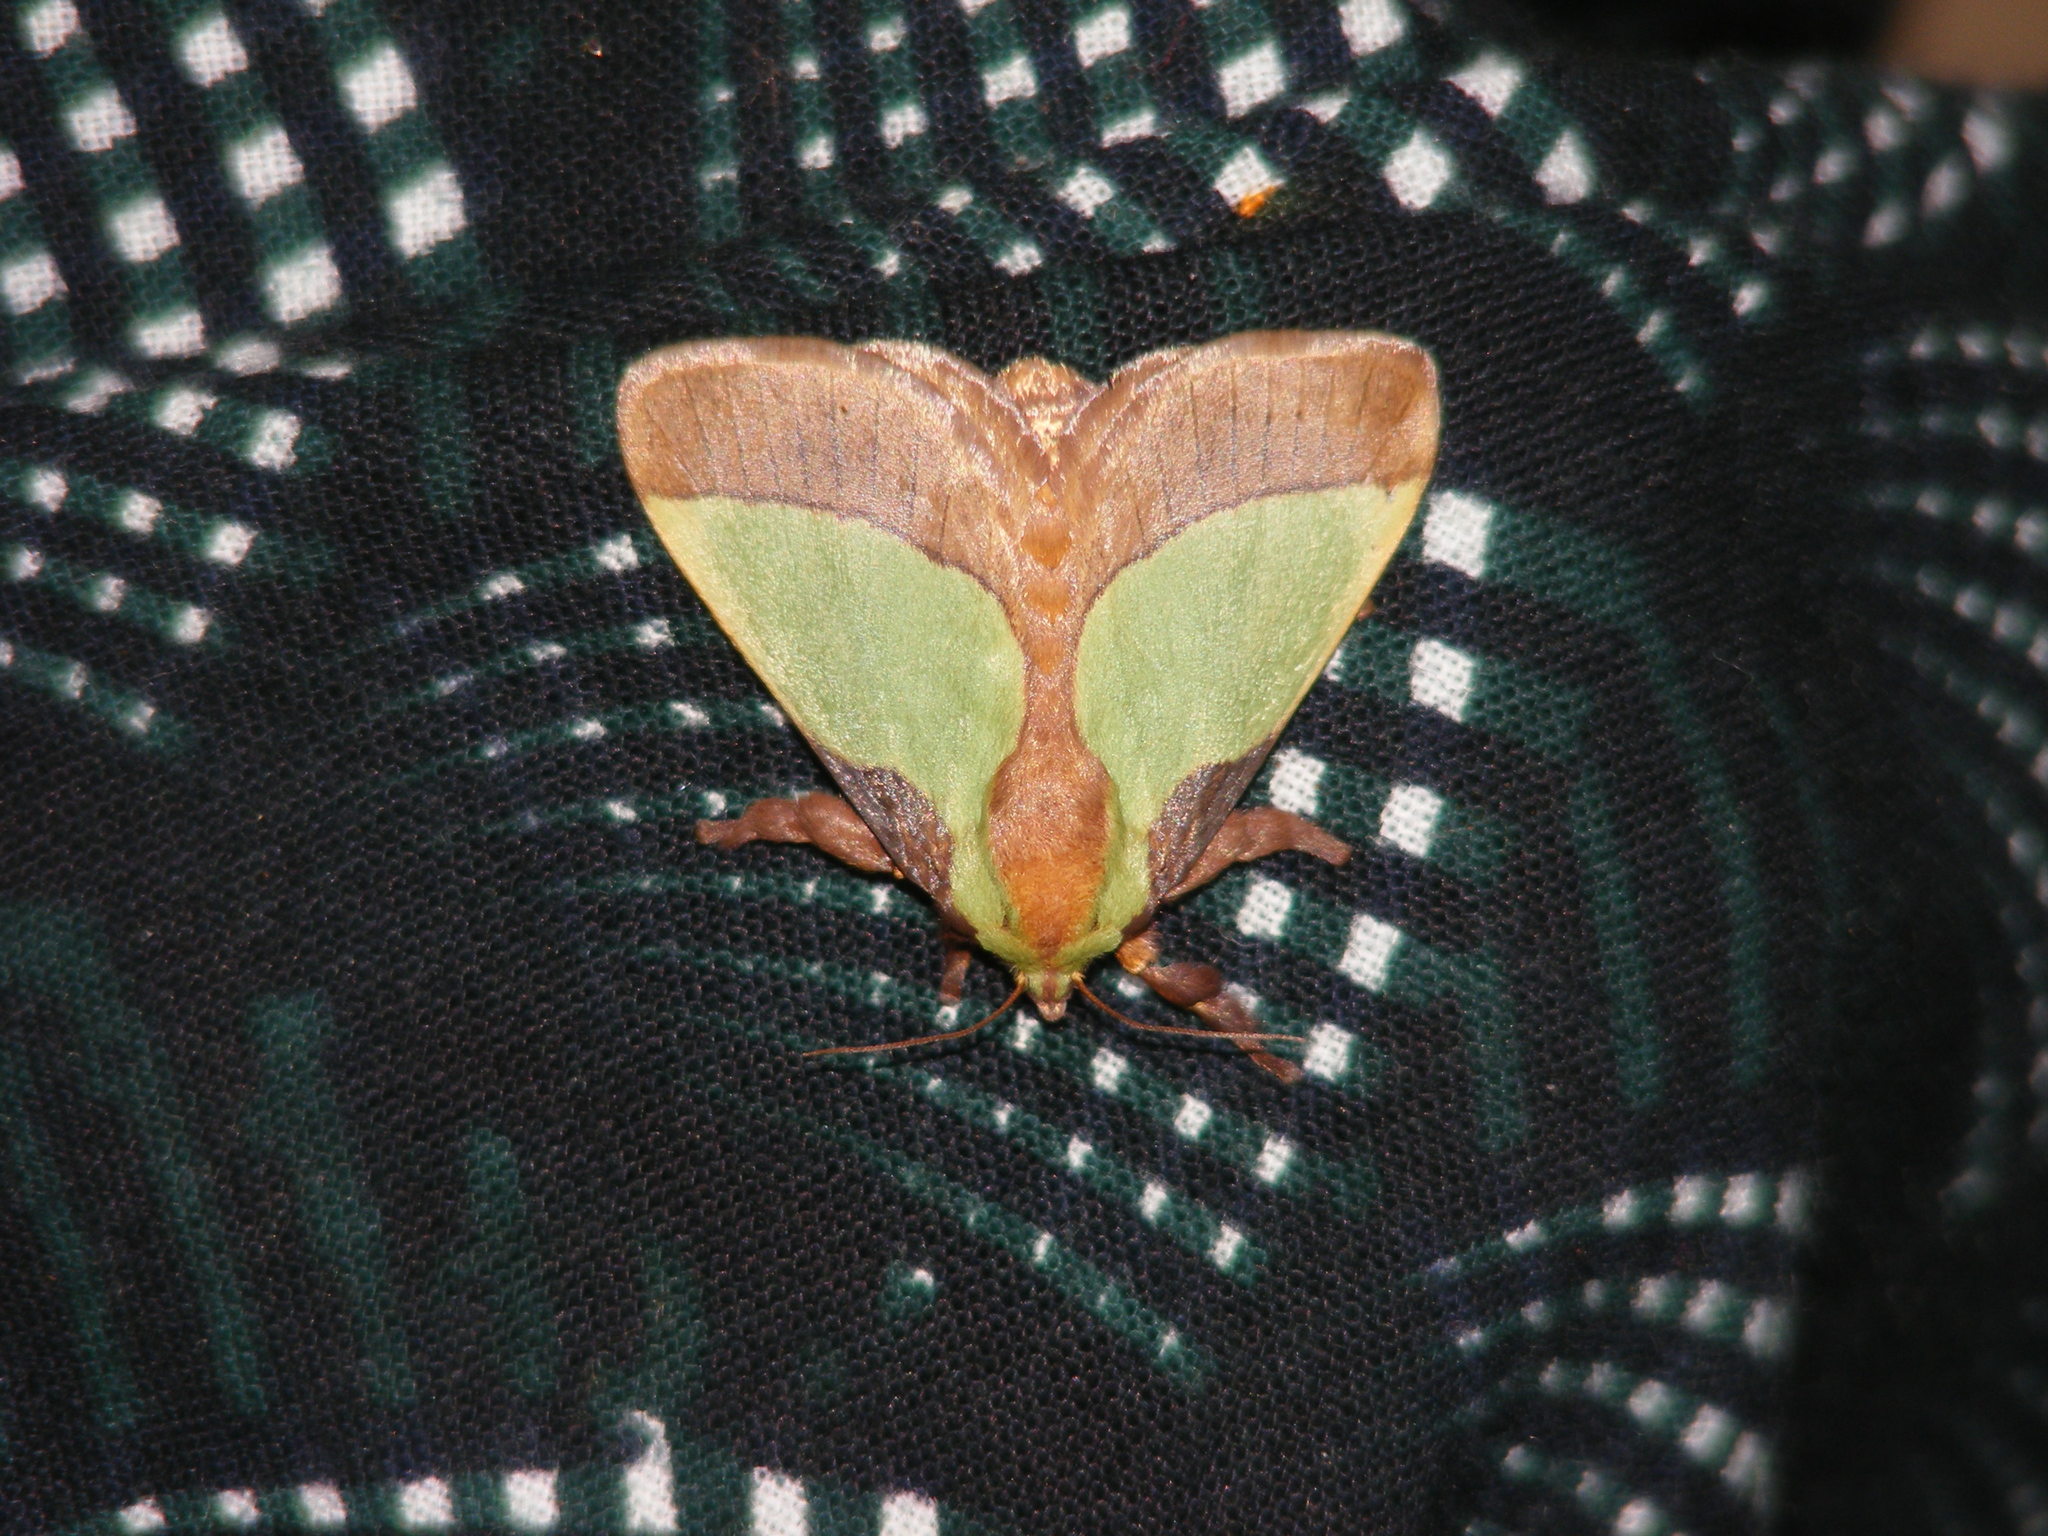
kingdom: Animalia
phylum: Arthropoda
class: Insecta
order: Lepidoptera
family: Limacodidae
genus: Parasa
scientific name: Parasa lepida
